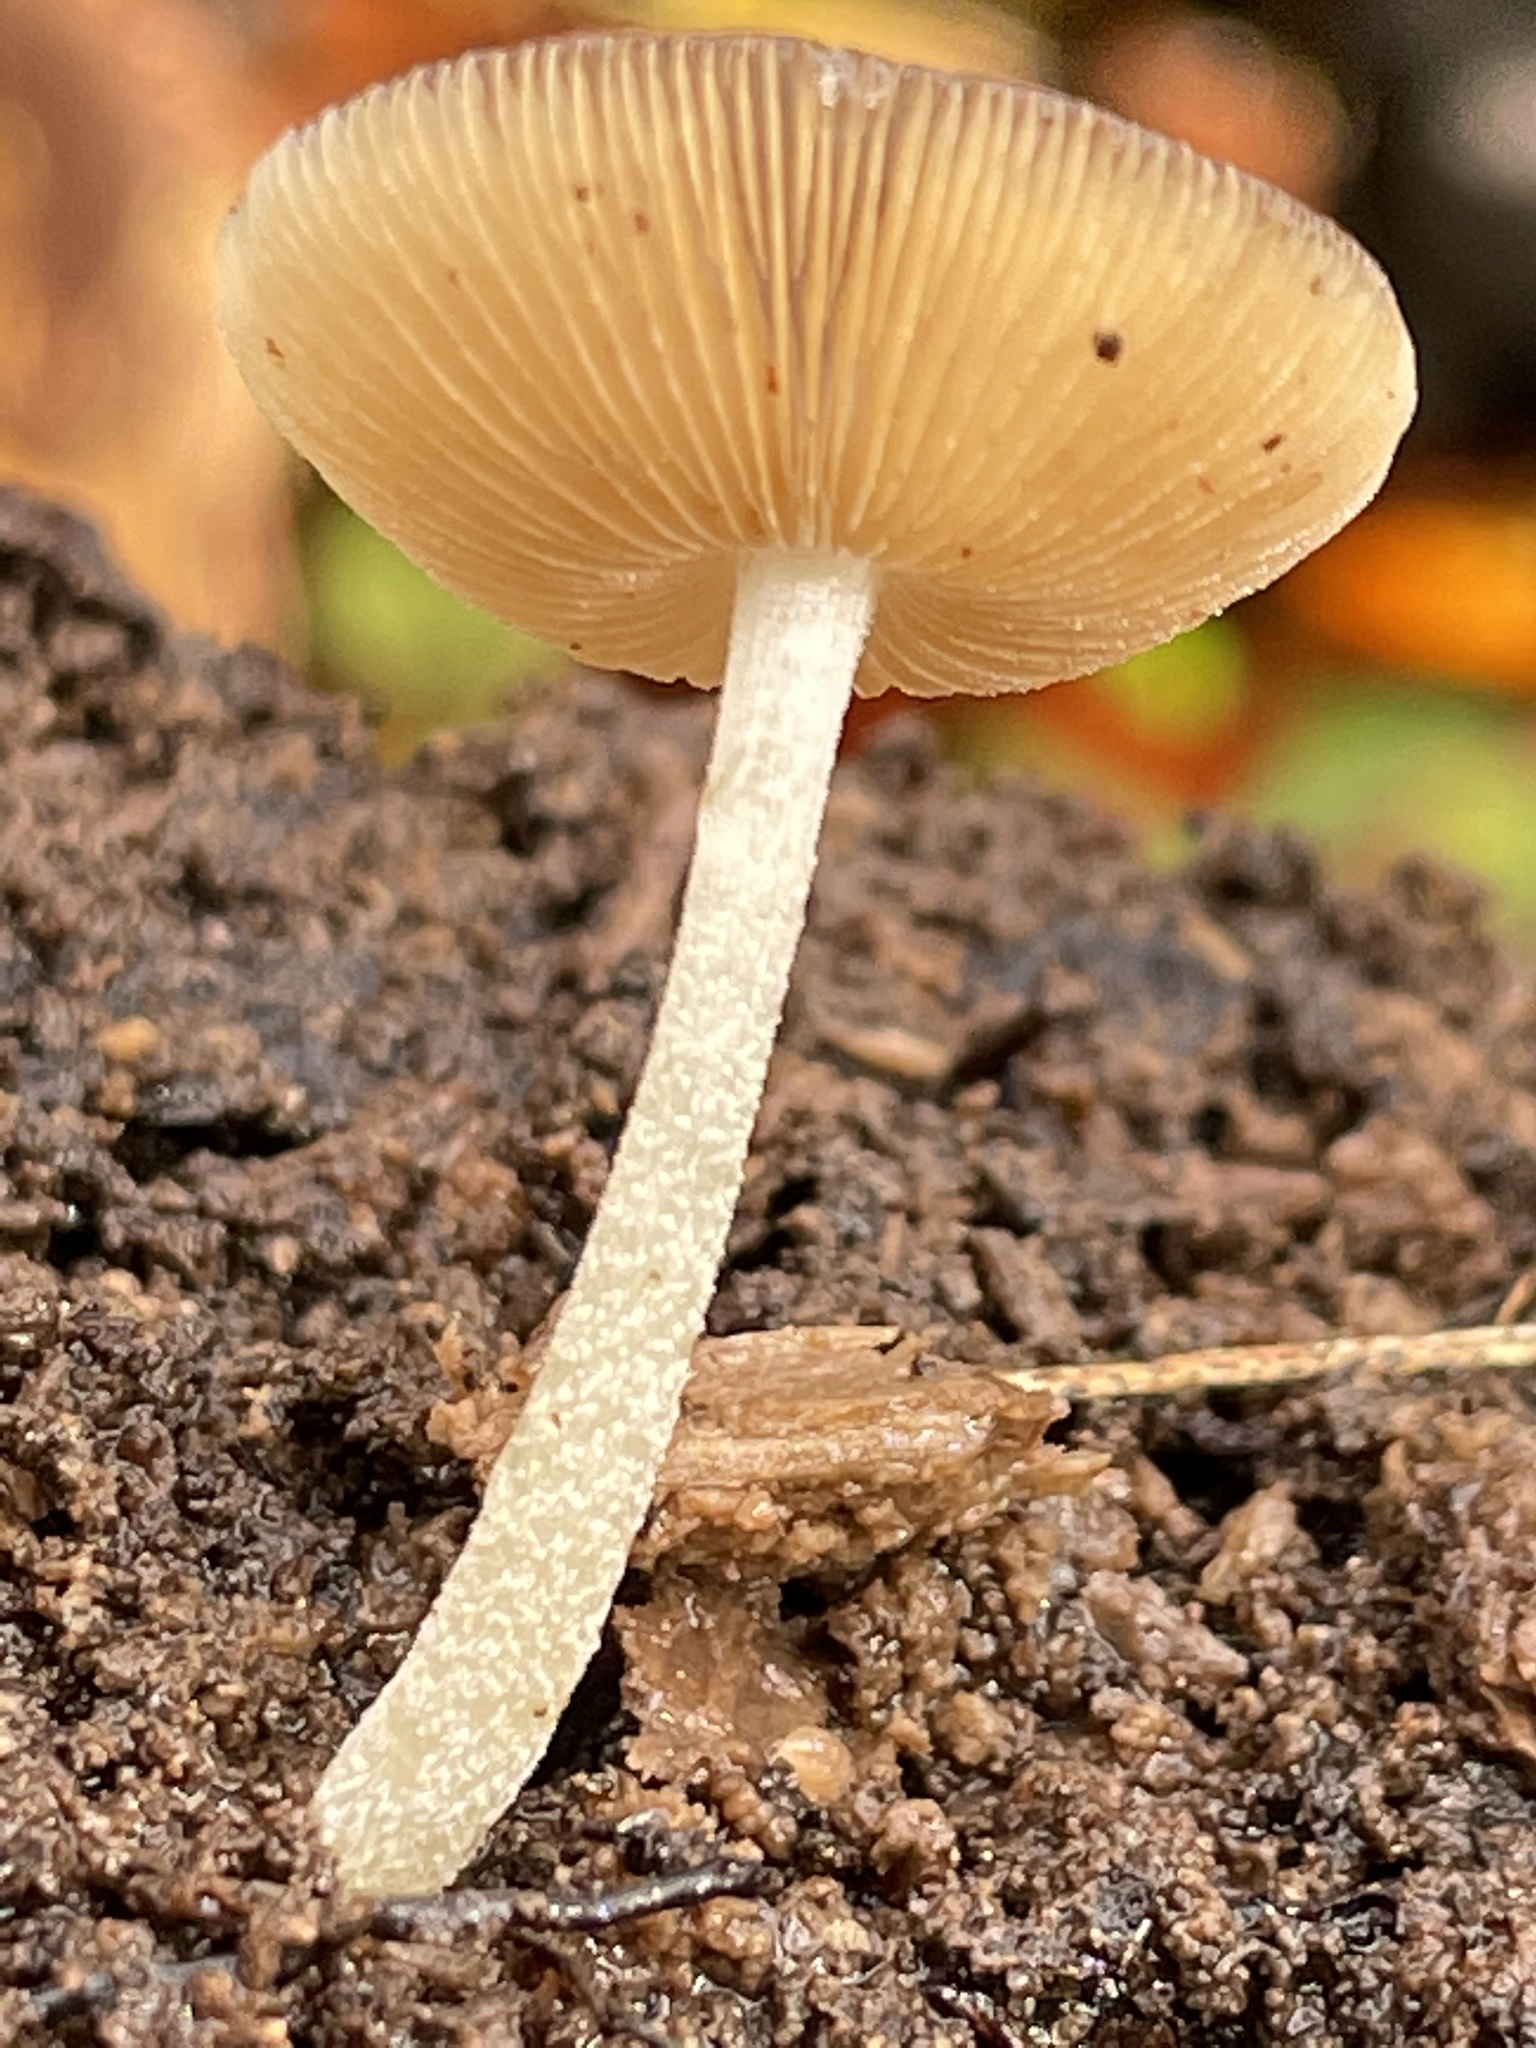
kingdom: Fungi
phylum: Basidiomycota
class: Agaricomycetes
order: Agaricales
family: Bolbitiaceae
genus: Bolbitius
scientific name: Bolbitius viscosus
